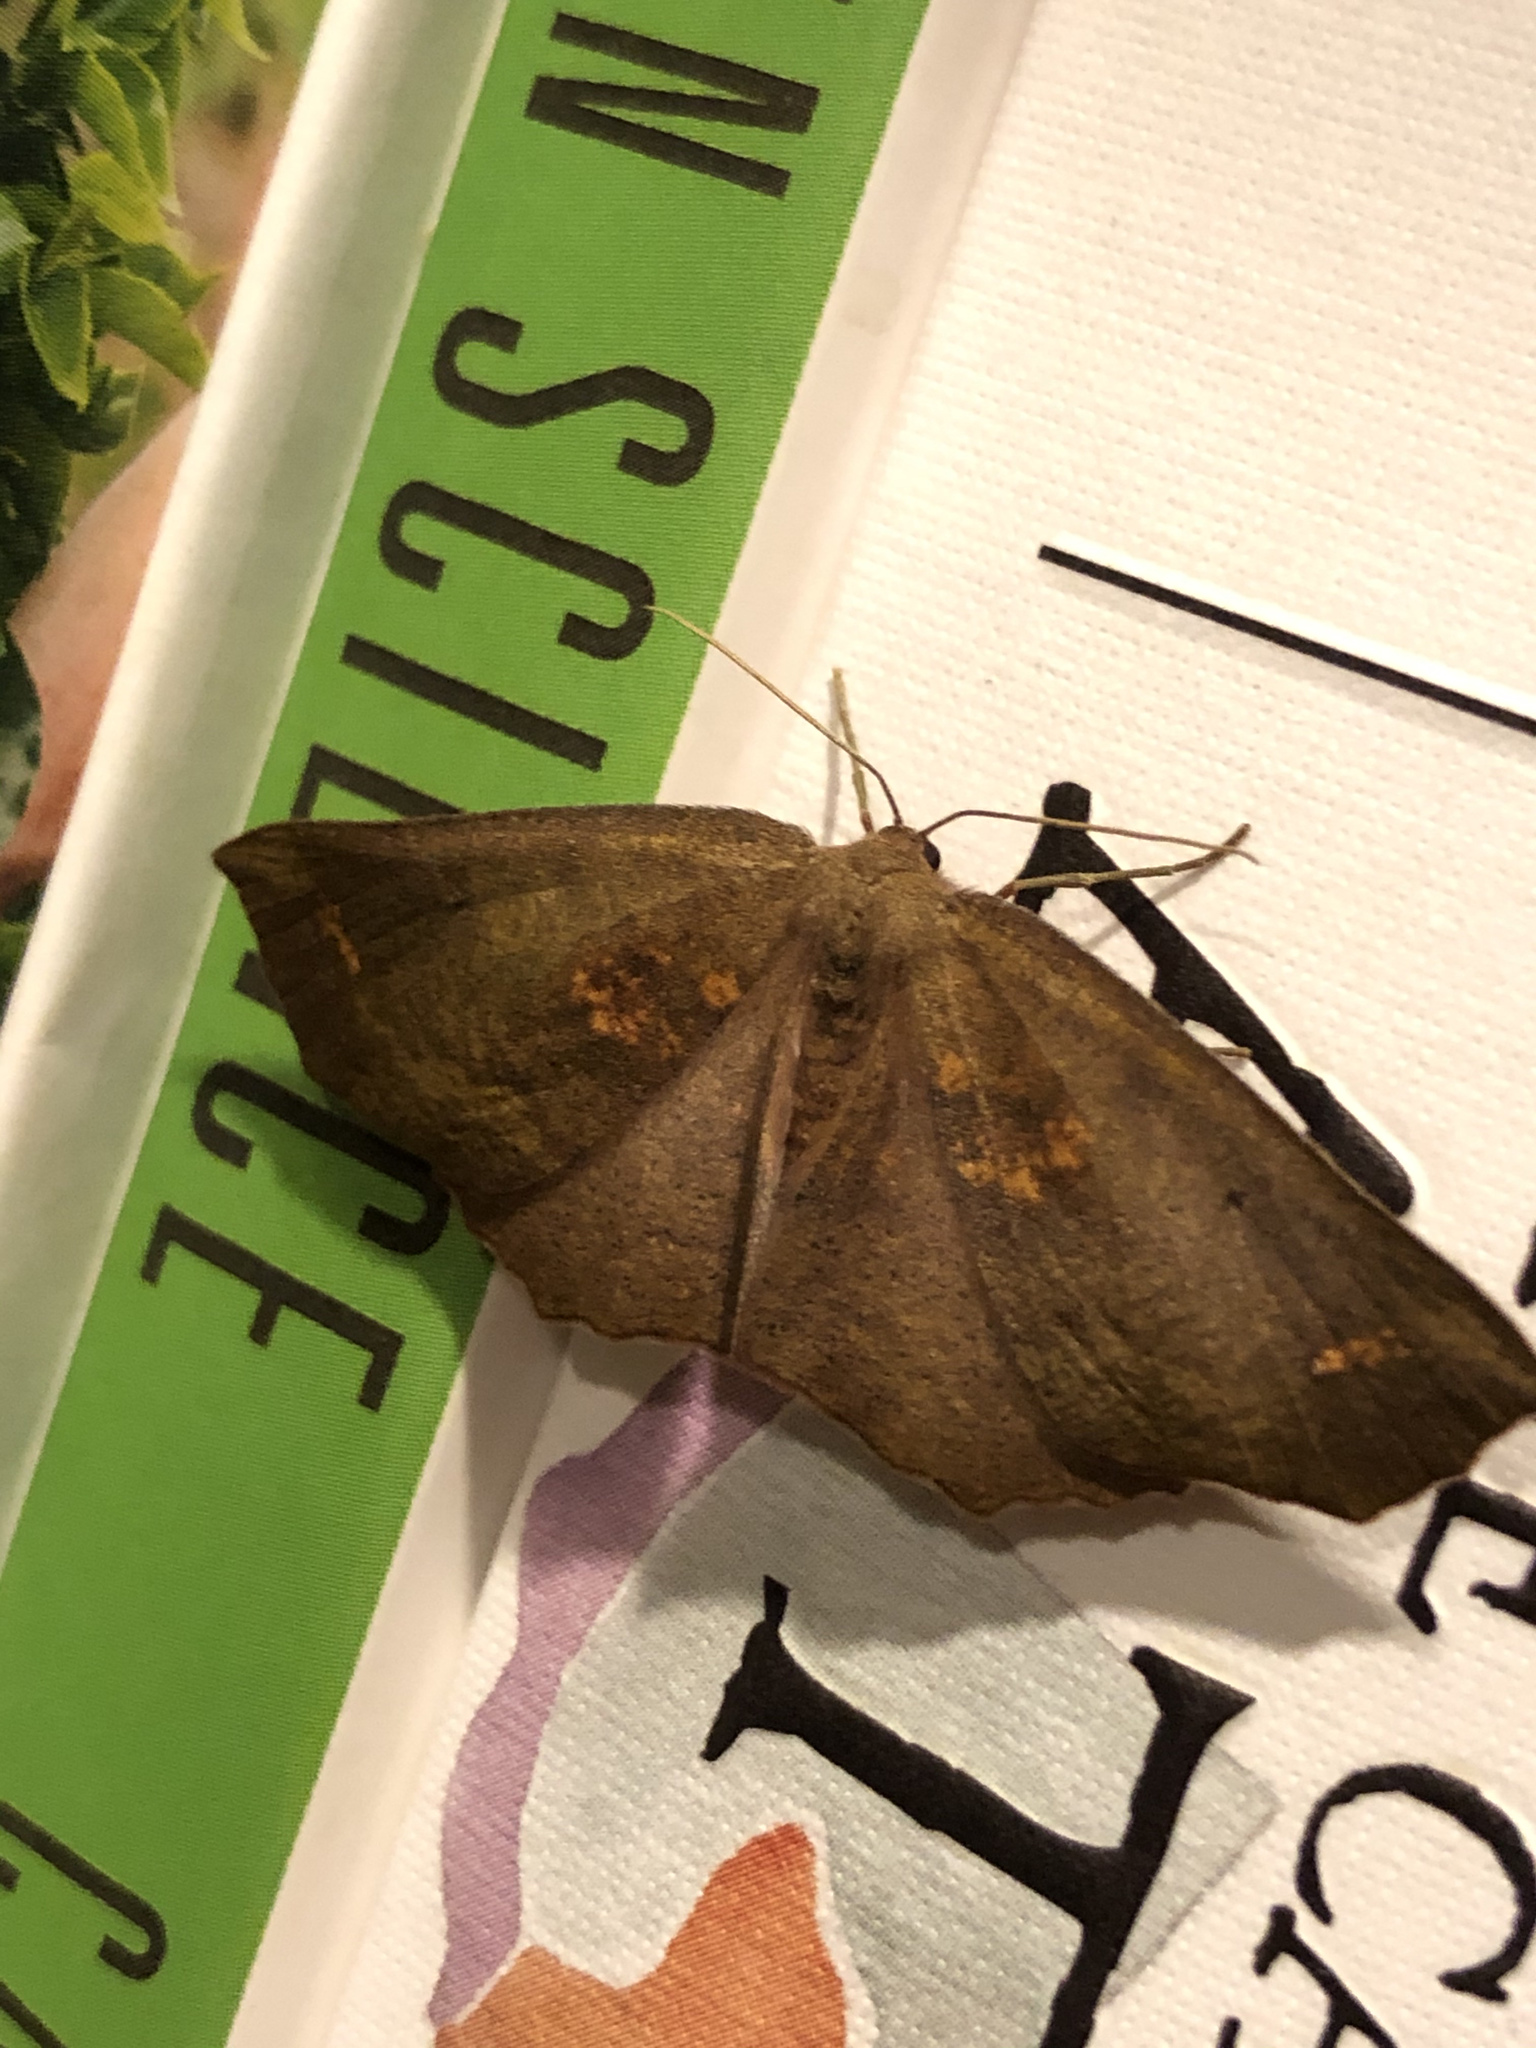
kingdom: Animalia
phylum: Arthropoda
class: Insecta
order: Lepidoptera
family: Geometridae
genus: Xyridacma
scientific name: Xyridacma ustaria
